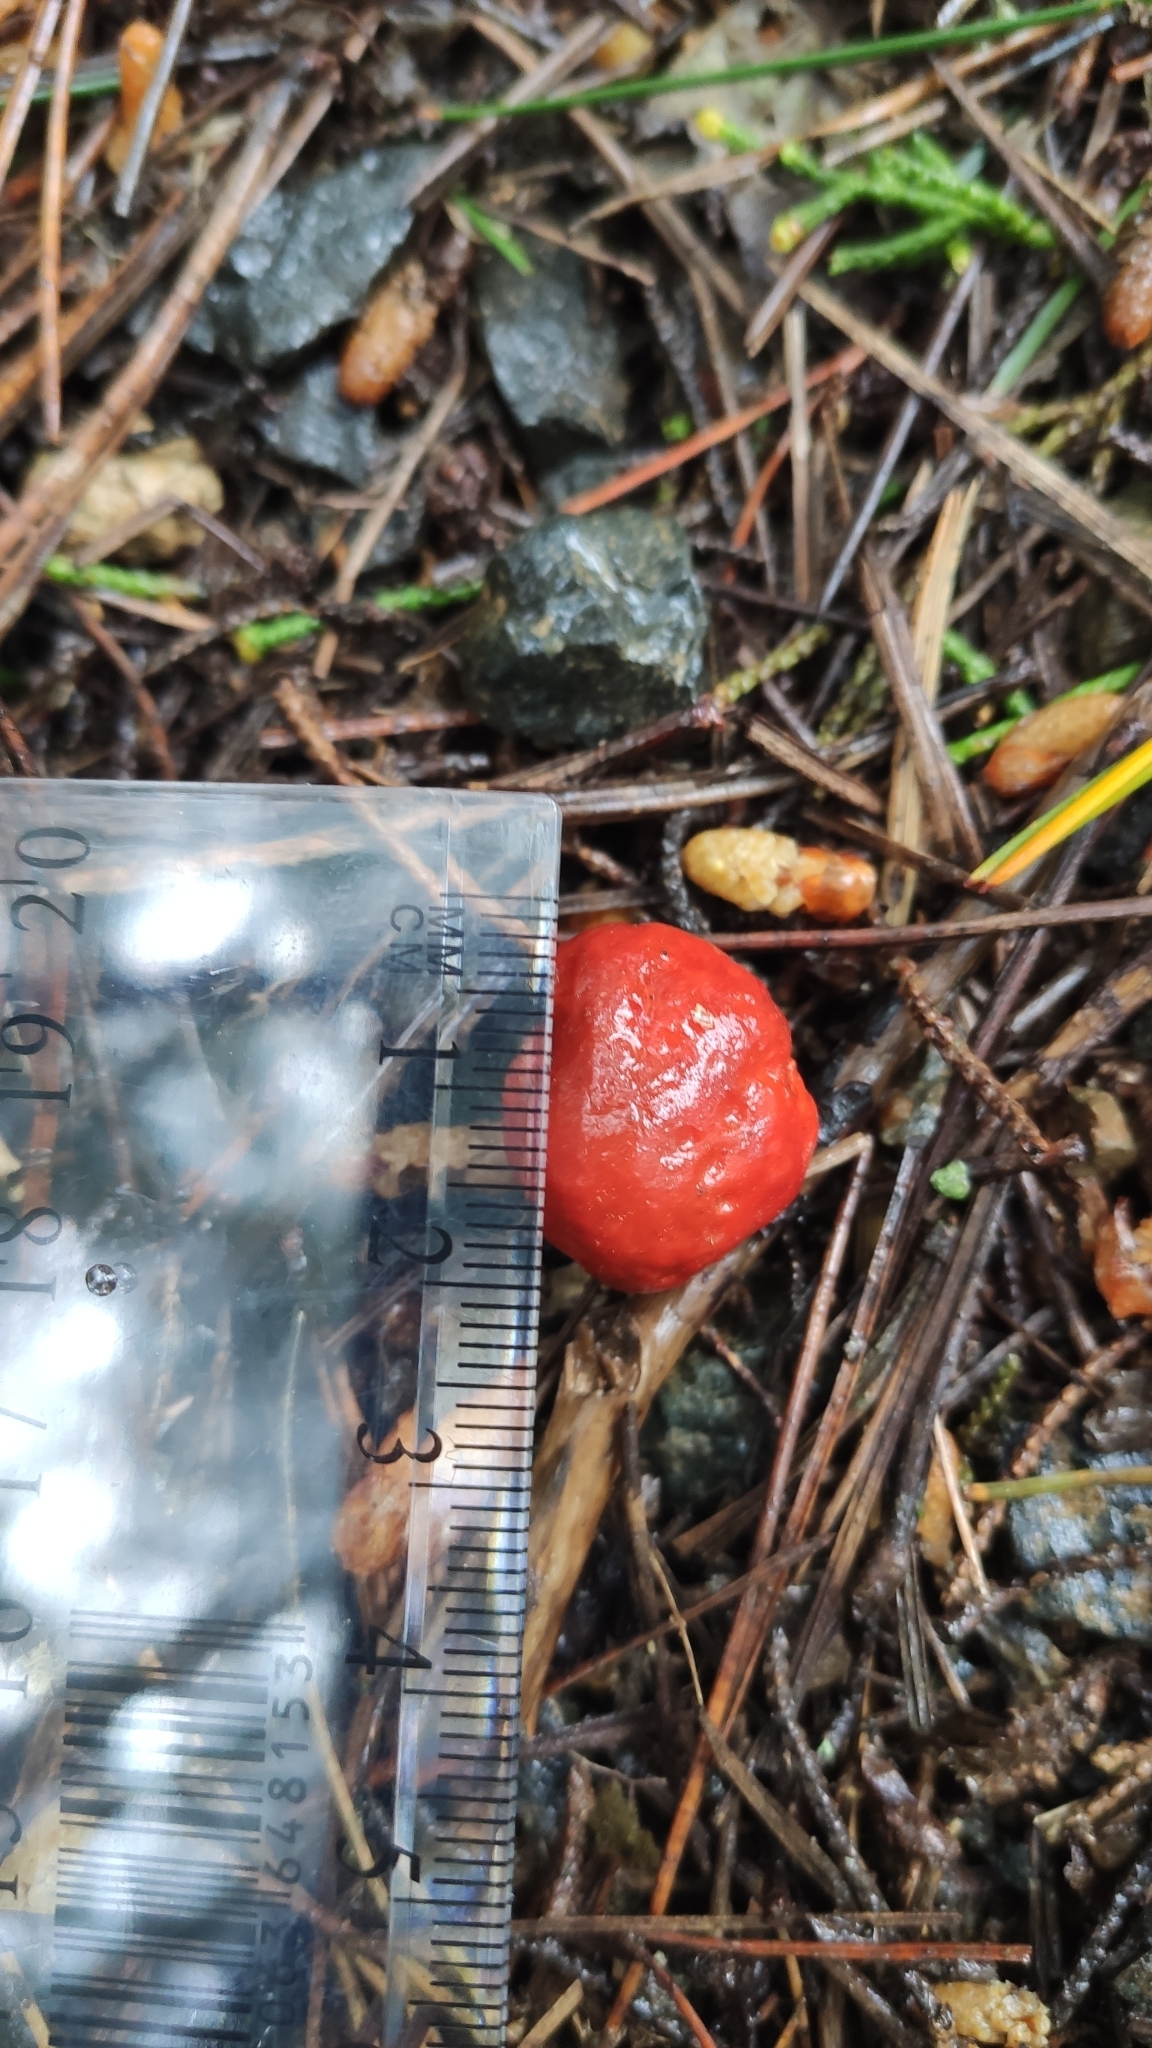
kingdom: Fungi
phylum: Basidiomycota
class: Agaricomycetes
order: Agaricales
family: Strophariaceae
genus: Leratiomyces
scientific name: Leratiomyces erythrocephalus
